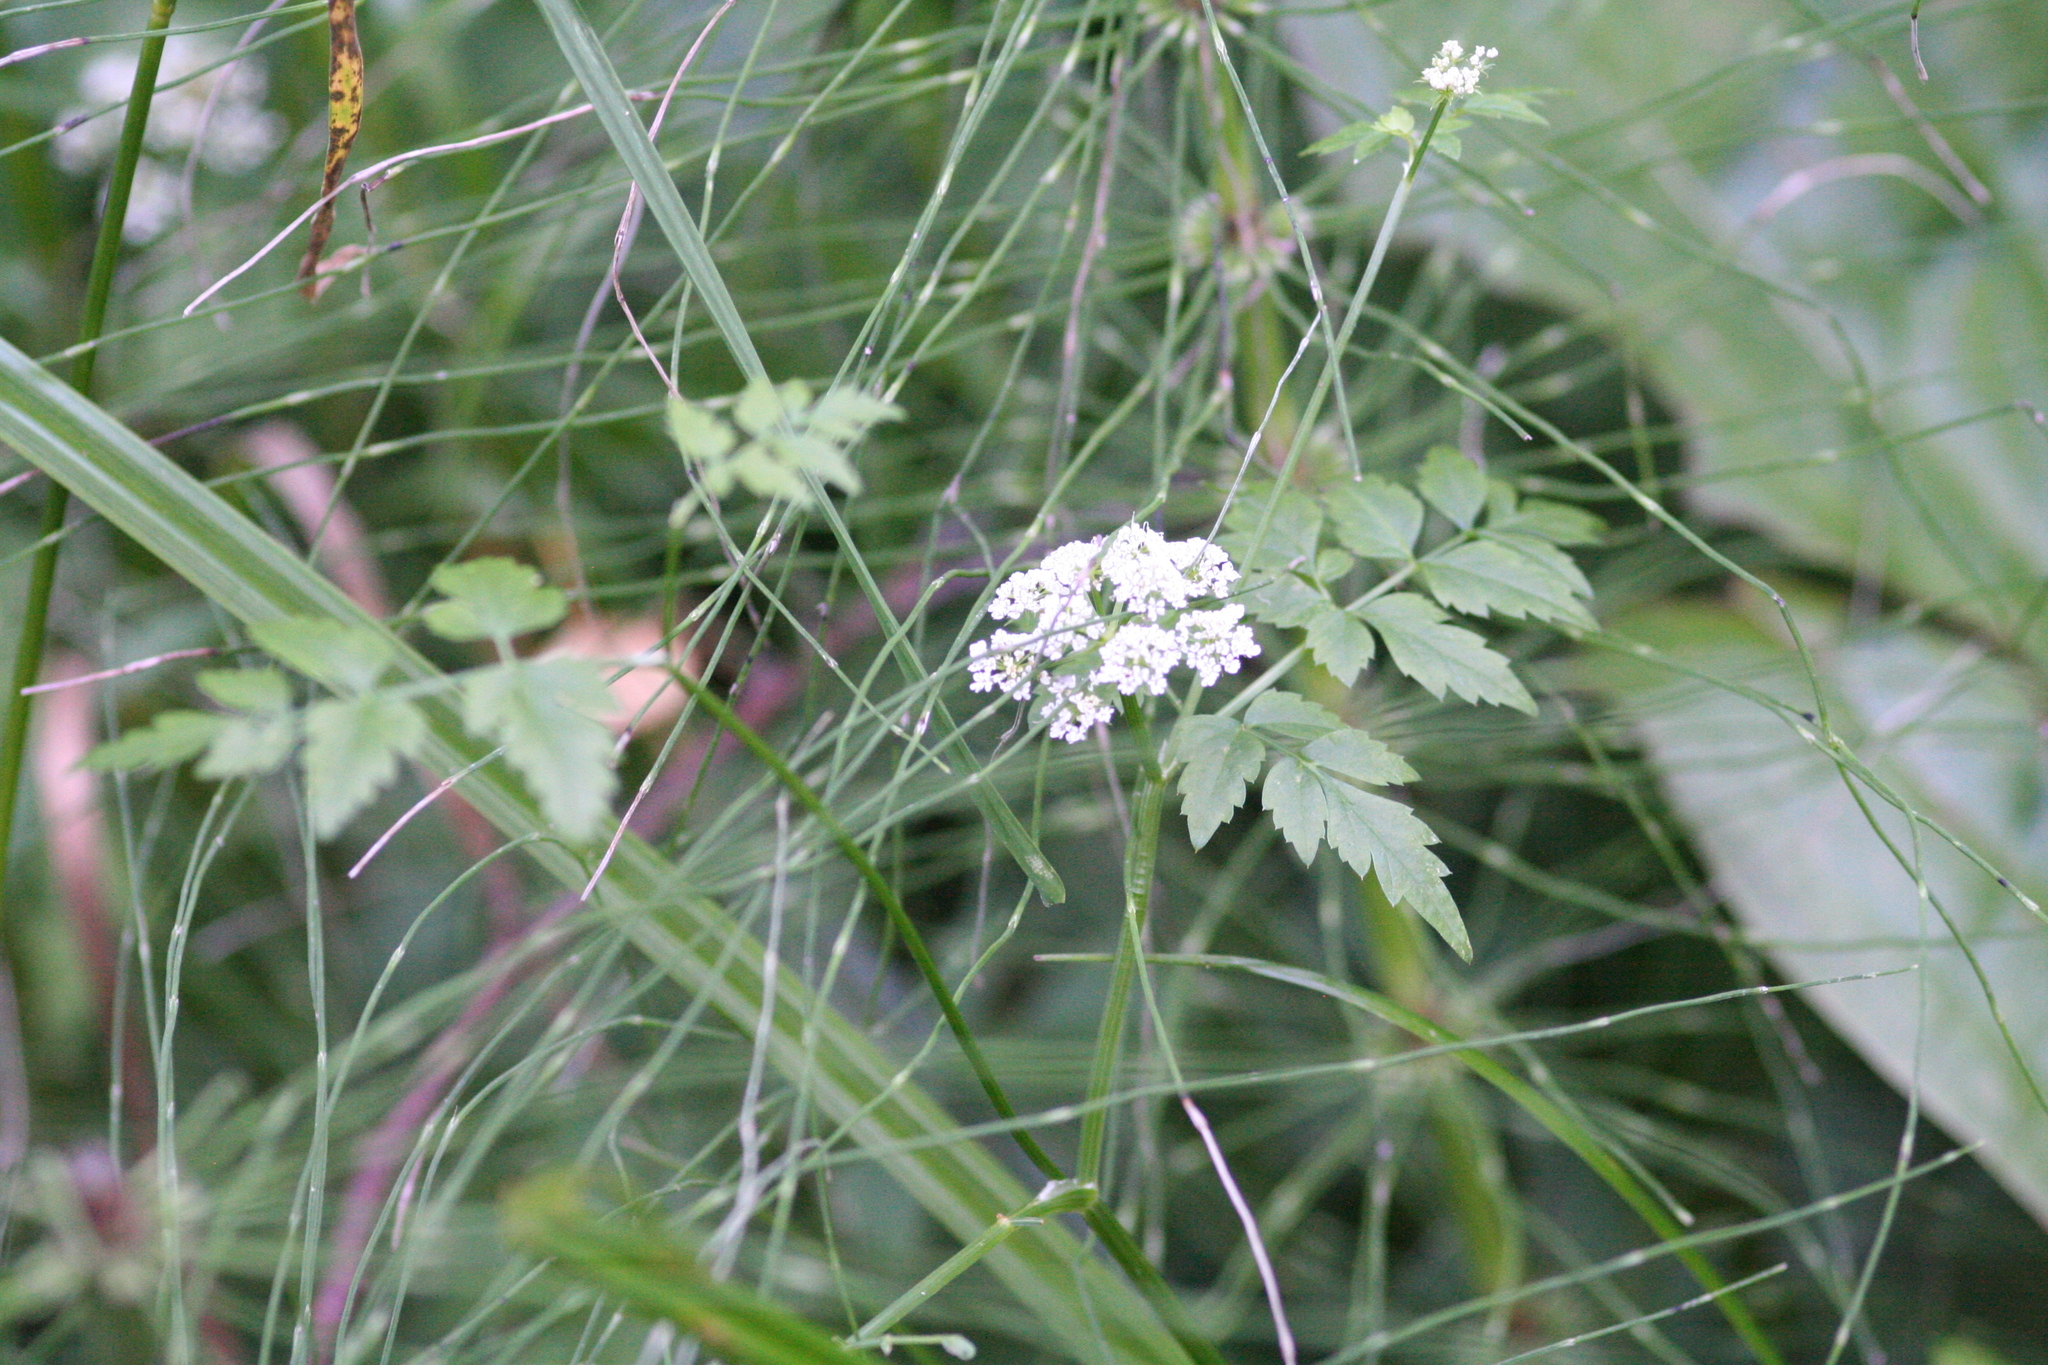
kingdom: Plantae
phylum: Tracheophyta
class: Magnoliopsida
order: Apiales
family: Apiaceae
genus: Osmorhiza
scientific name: Osmorhiza berteroi
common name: Mountain sweet cicely
